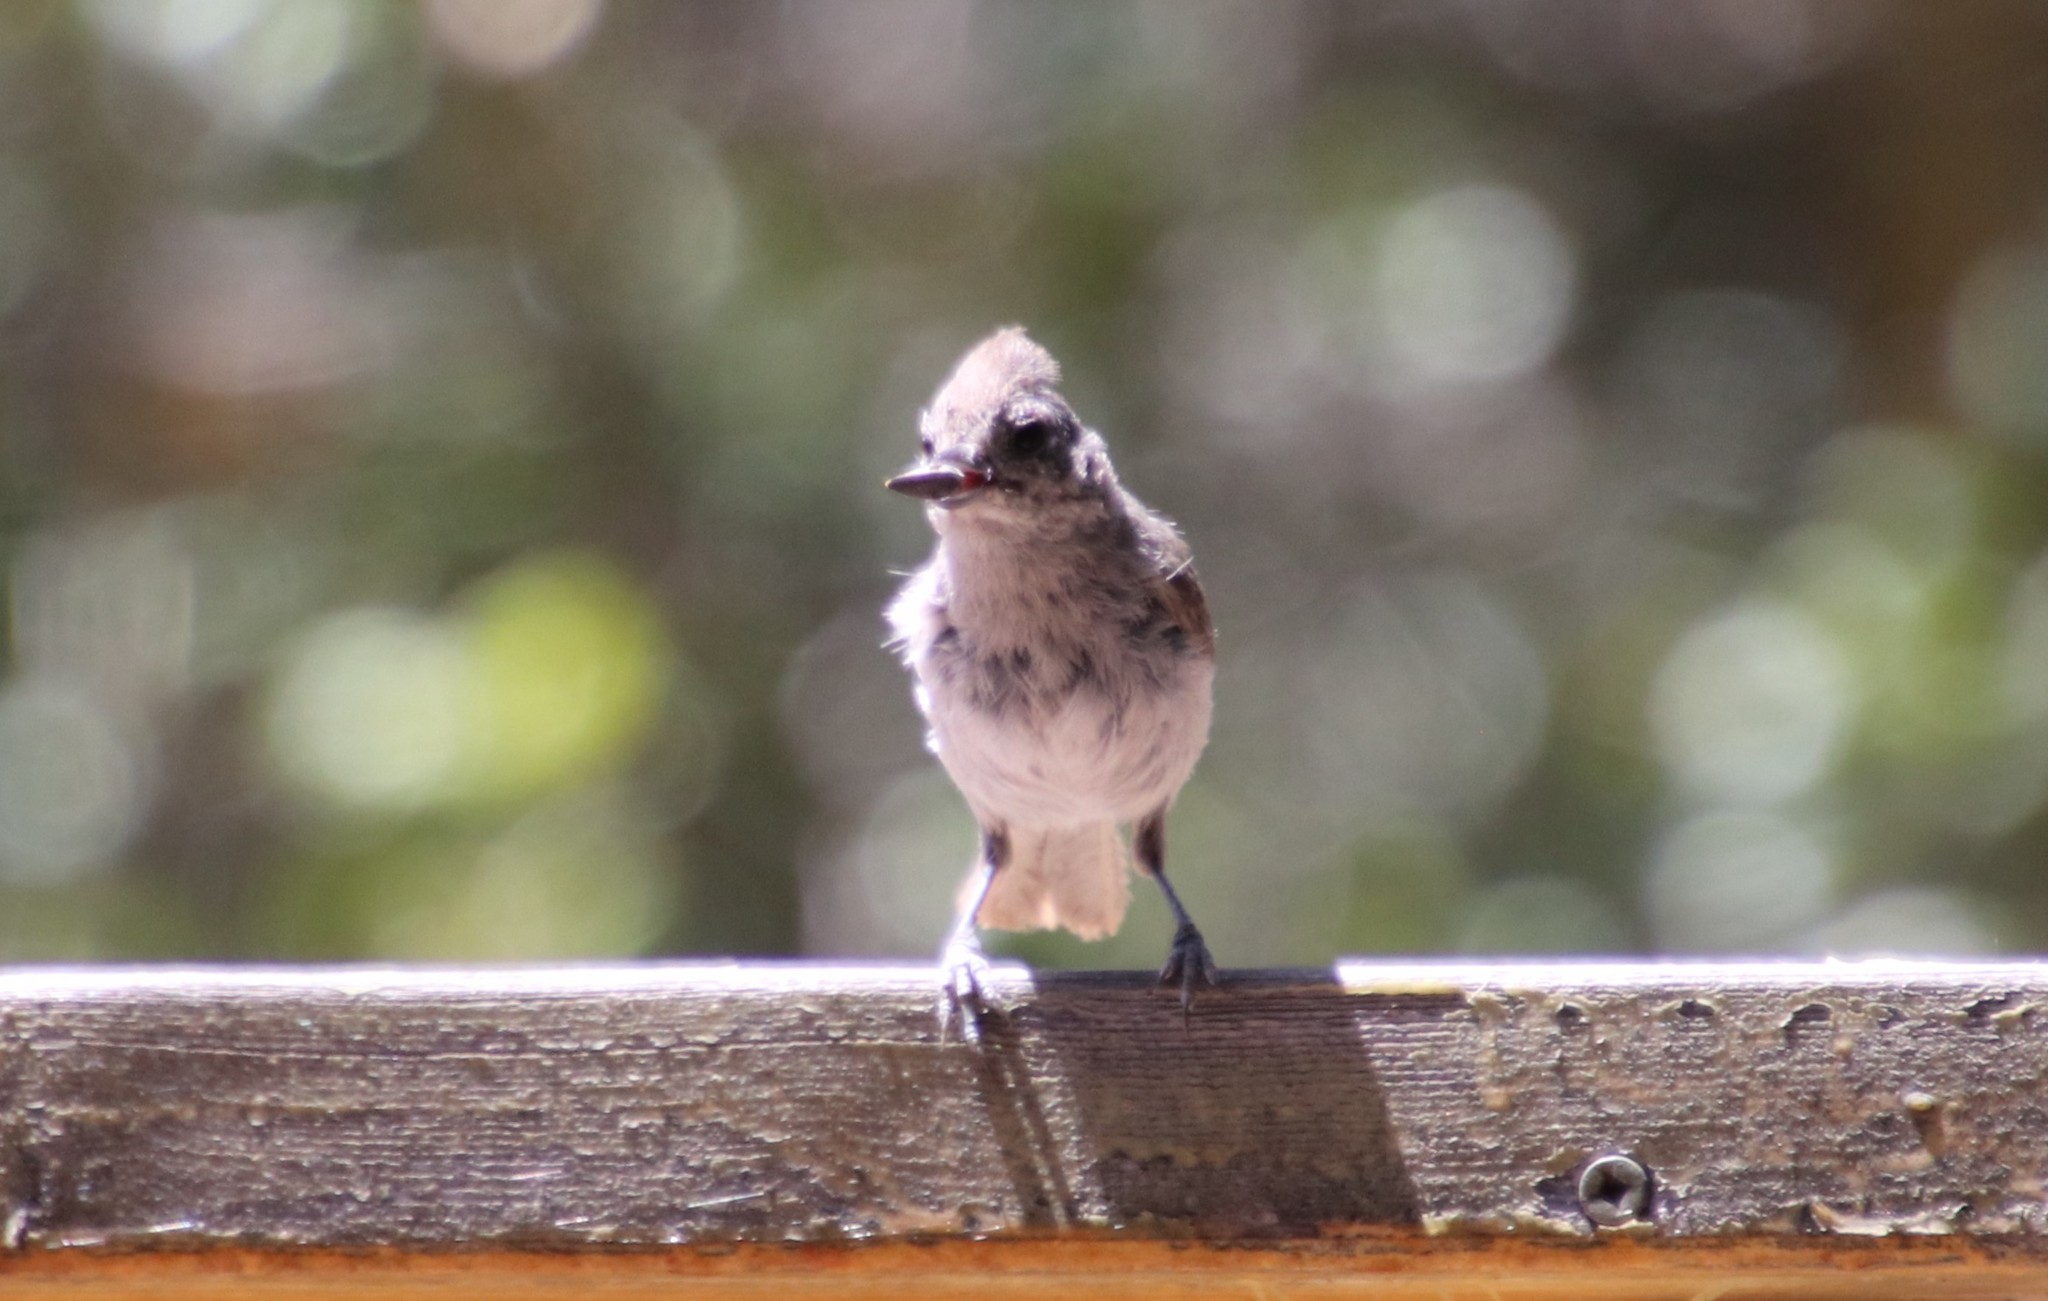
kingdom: Animalia
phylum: Chordata
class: Aves
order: Passeriformes
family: Paridae
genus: Baeolophus
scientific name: Baeolophus inornatus
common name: Oak titmouse
